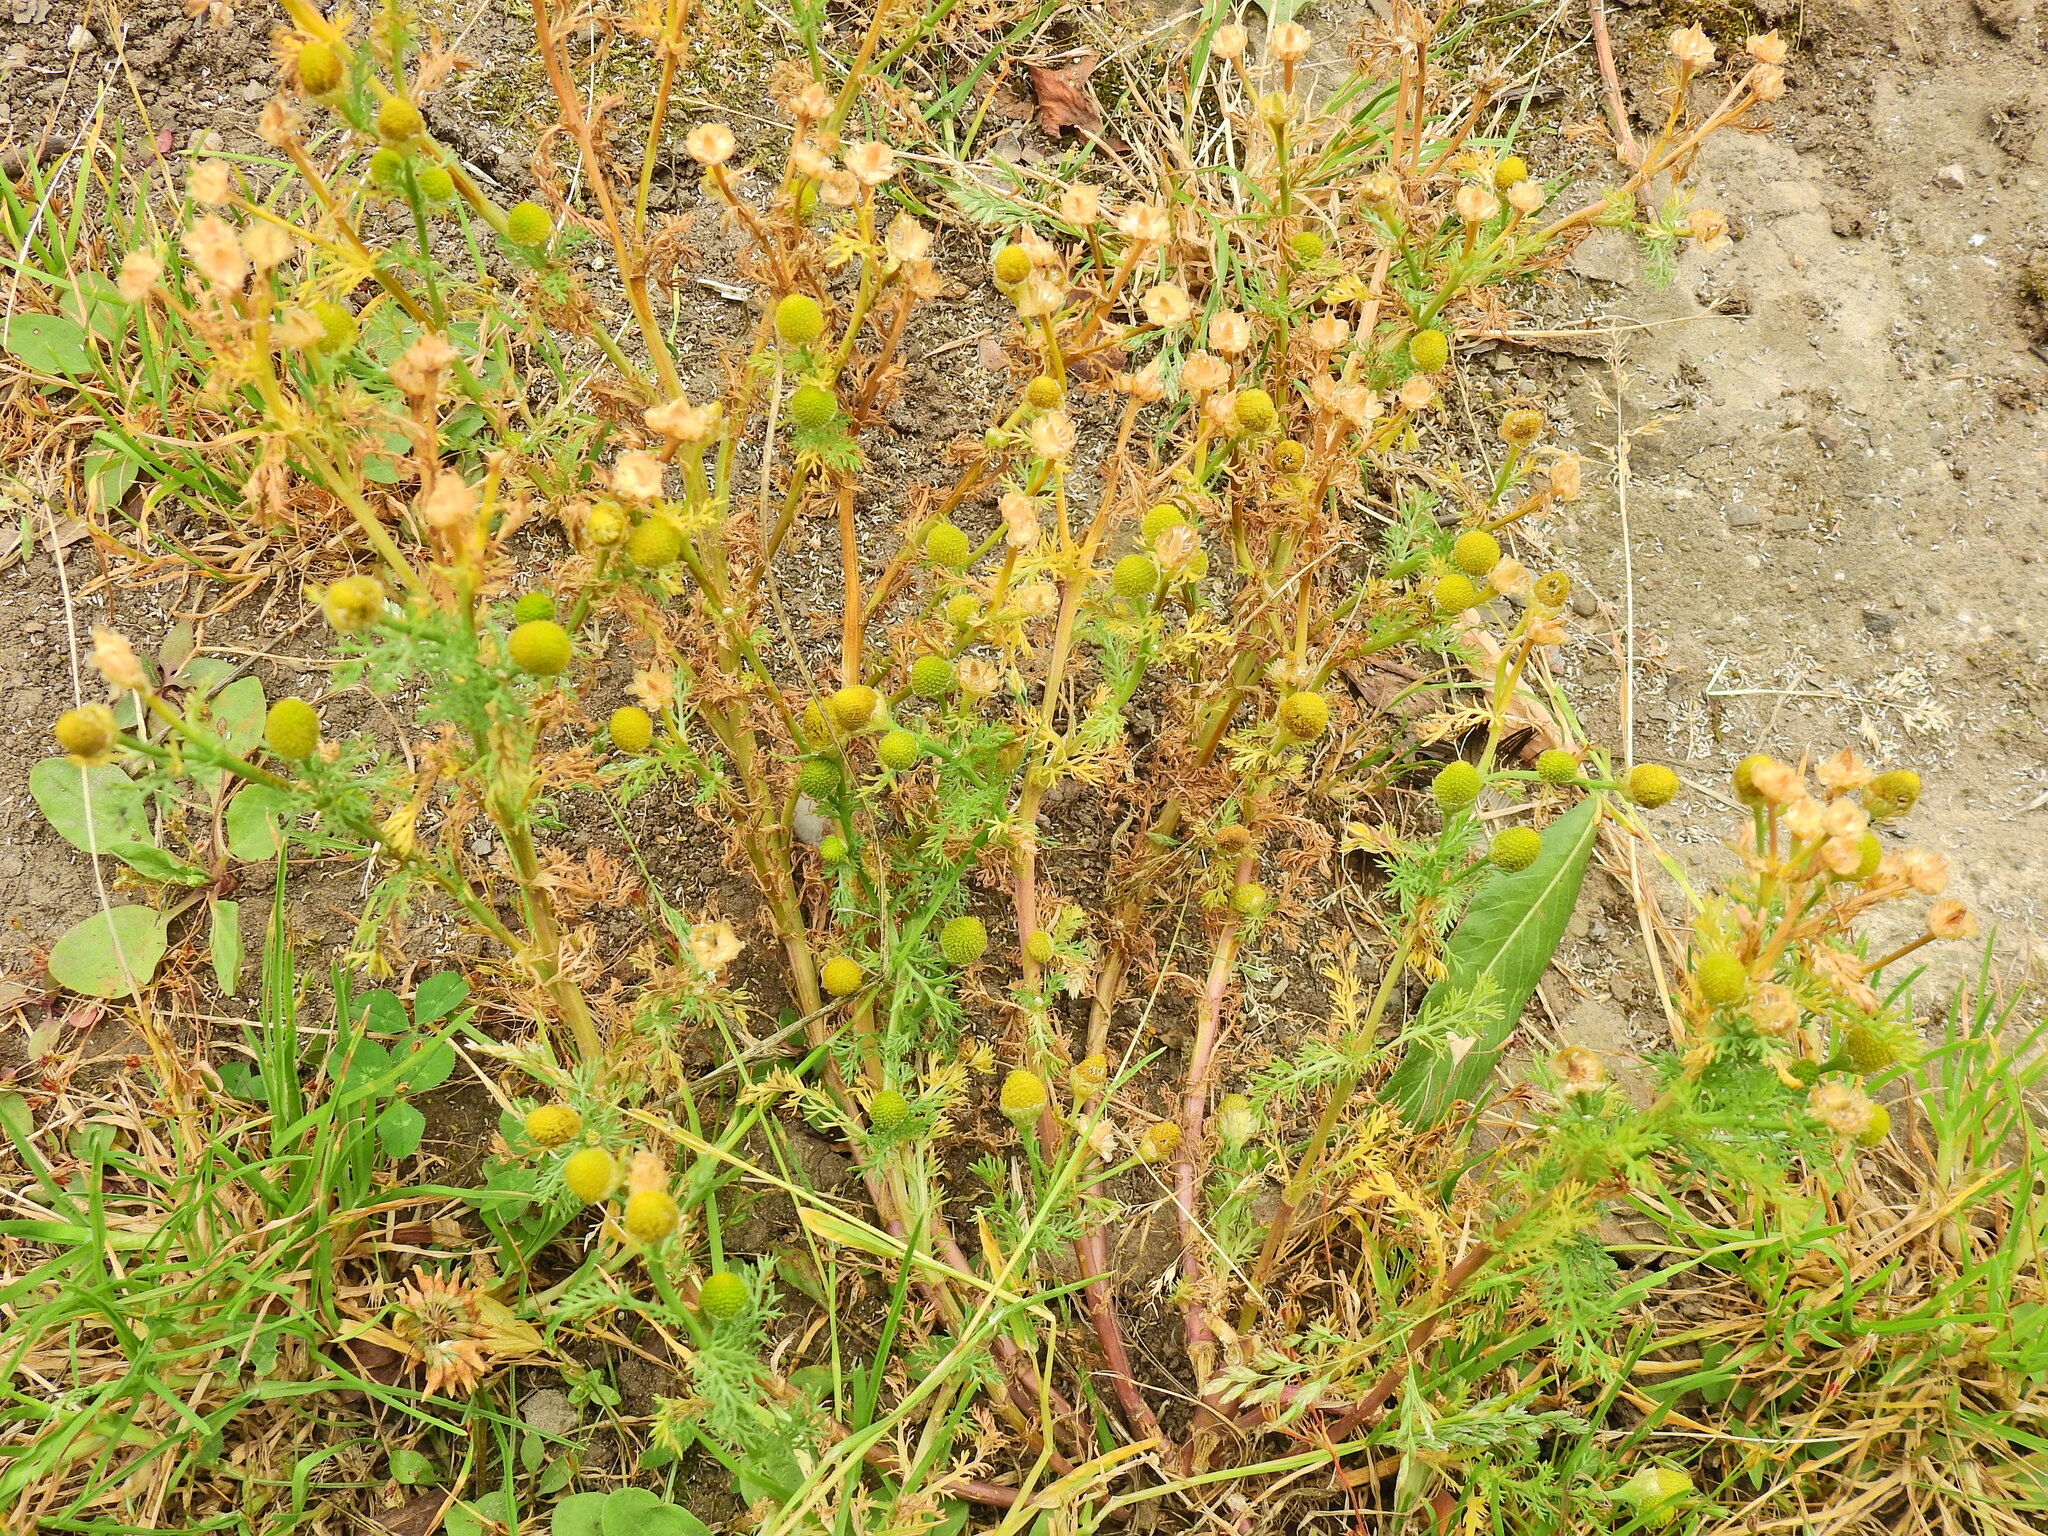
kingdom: Plantae
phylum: Tracheophyta
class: Magnoliopsida
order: Asterales
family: Asteraceae
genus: Matricaria
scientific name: Matricaria discoidea
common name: Disc mayweed
